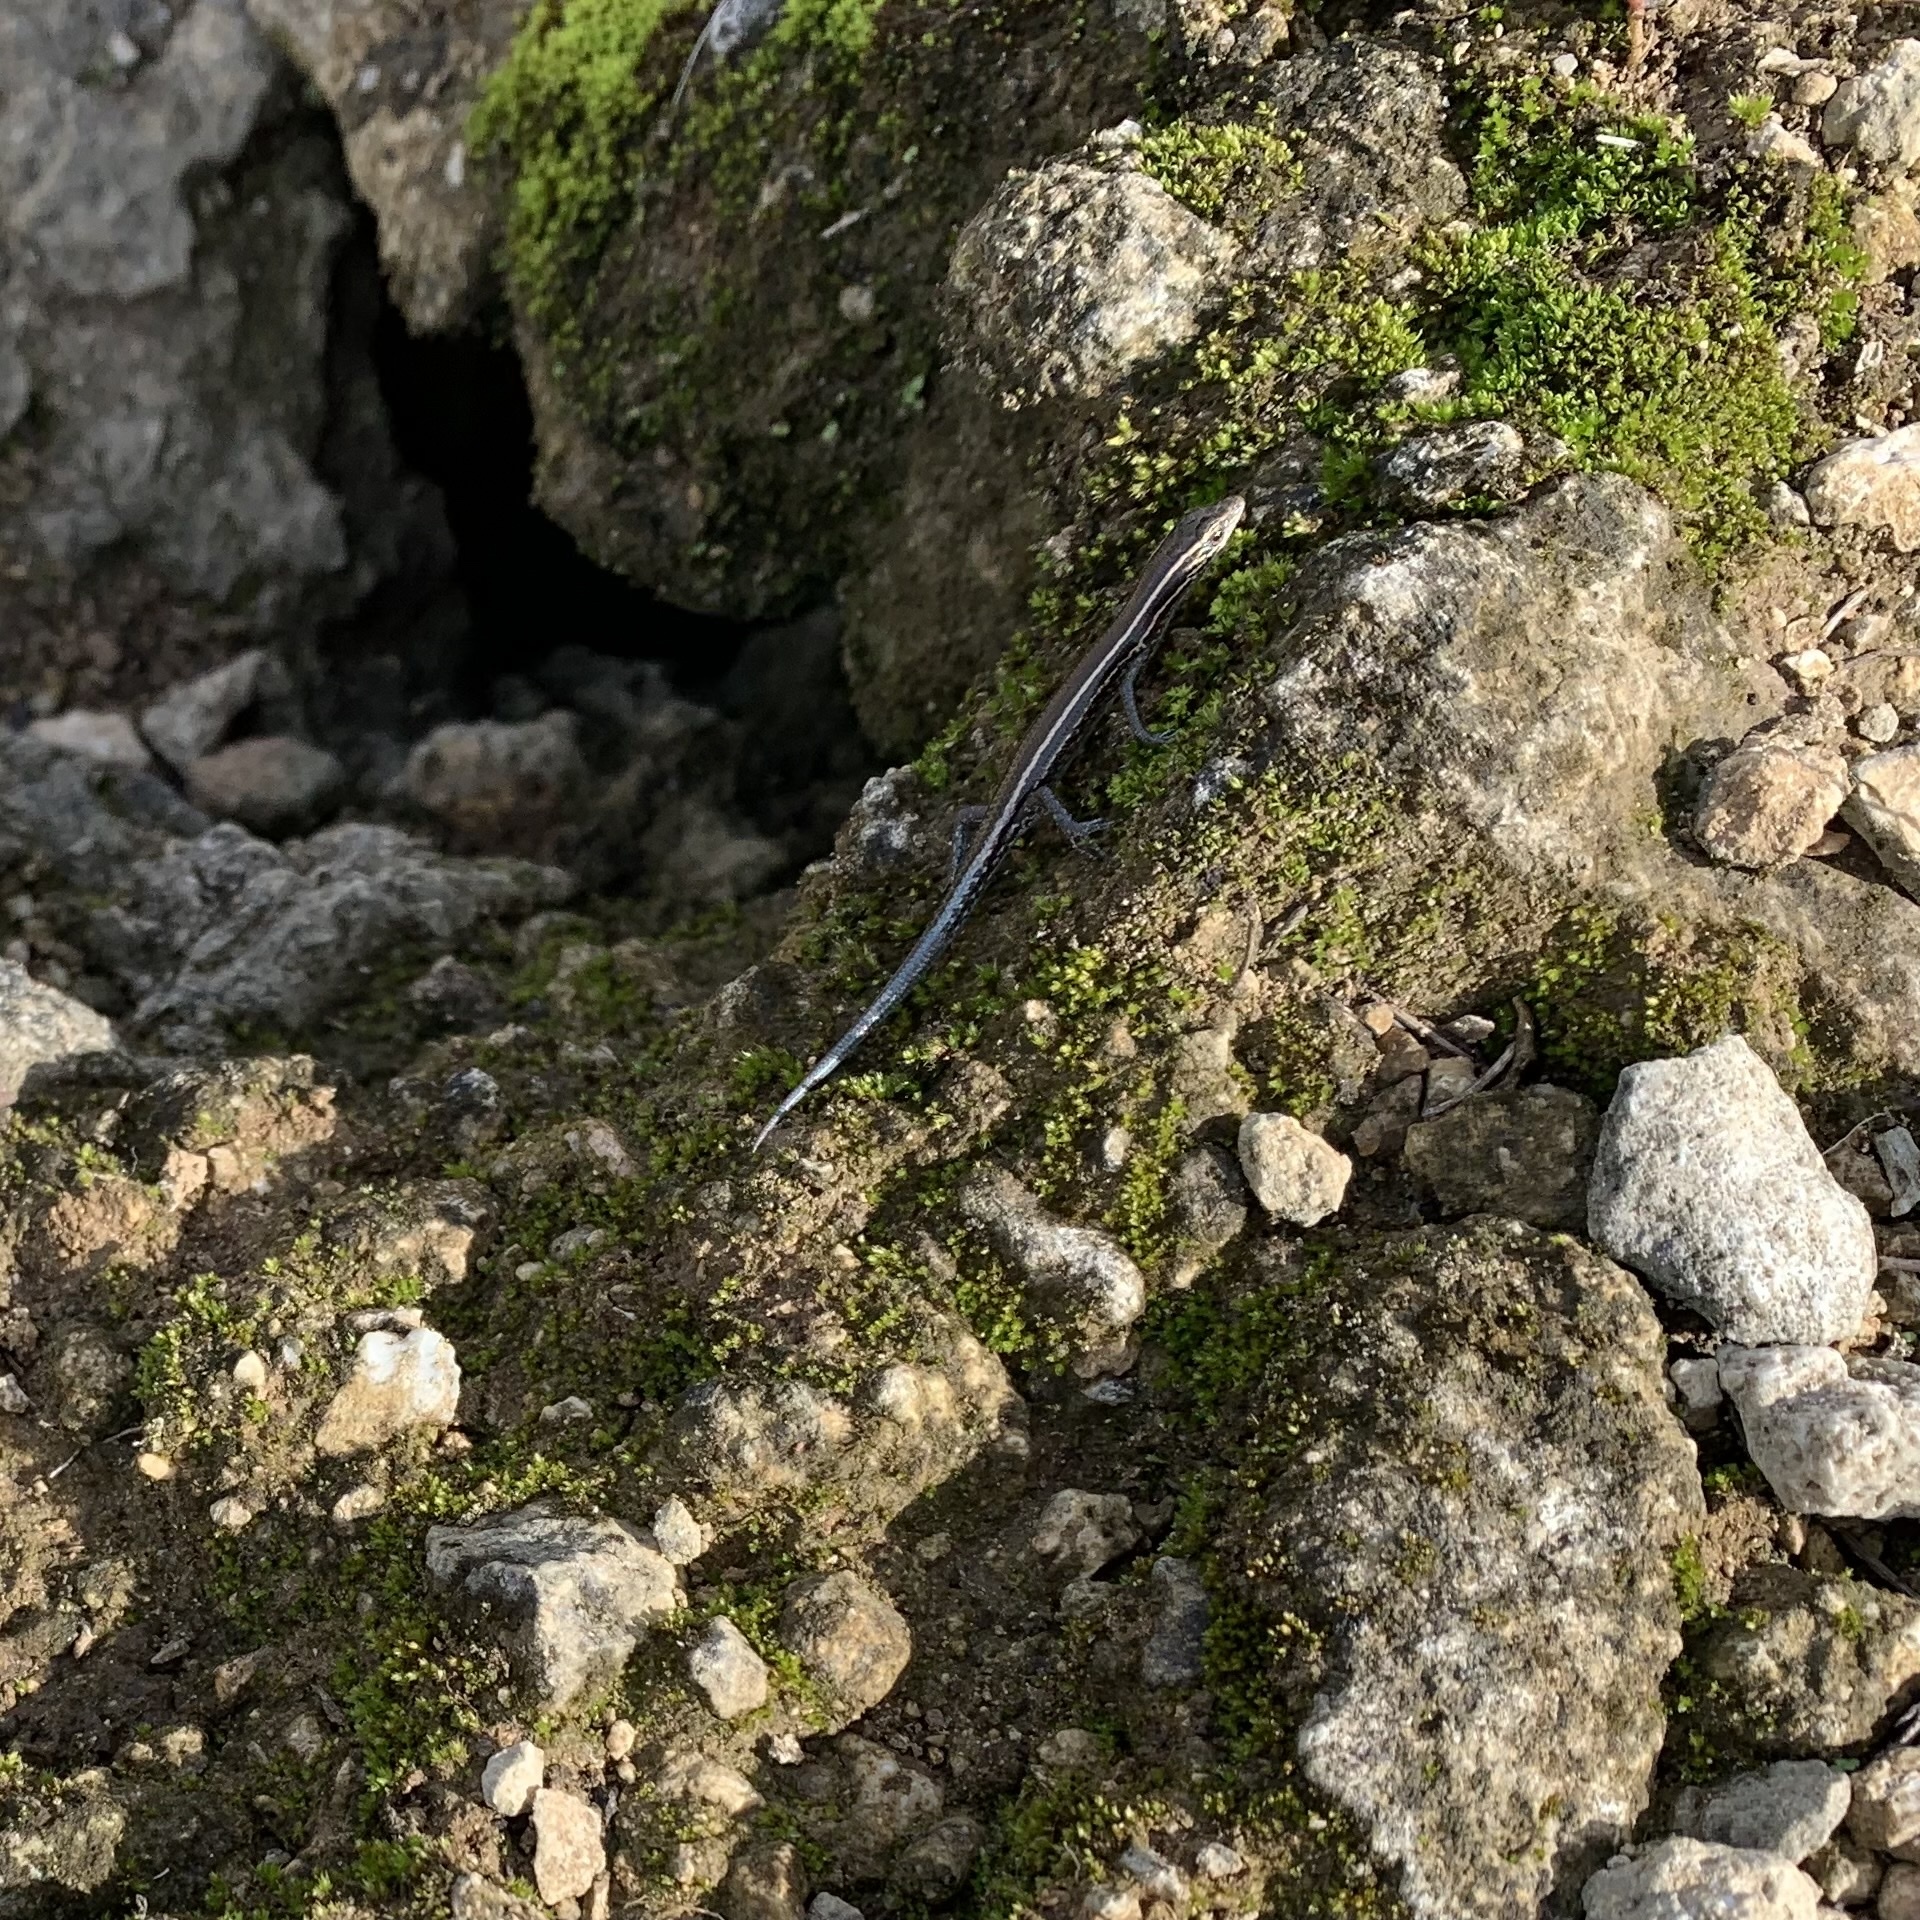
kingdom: Animalia
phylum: Chordata
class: Squamata
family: Scincidae
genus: Cryptoblepharus
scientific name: Cryptoblepharus novohebridicus
